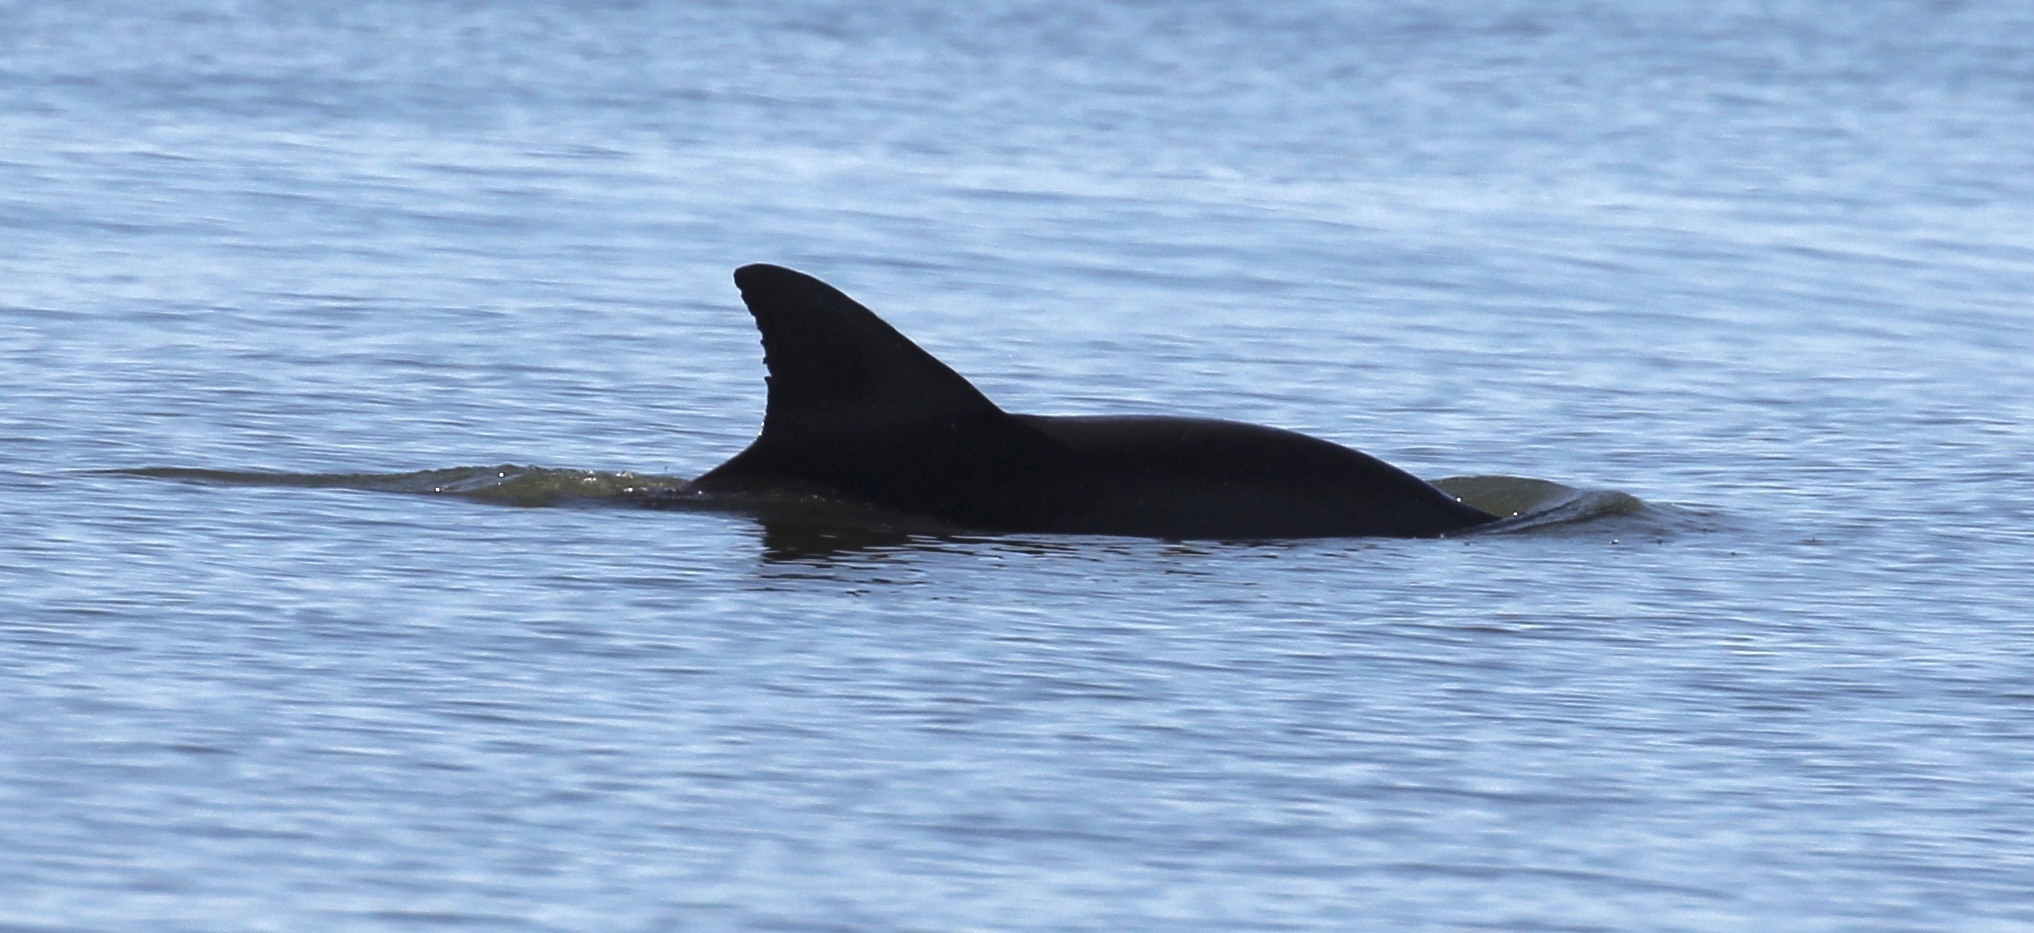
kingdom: Animalia
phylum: Chordata
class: Mammalia
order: Cetacea
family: Delphinidae
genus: Tursiops
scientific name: Tursiops truncatus
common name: Bottlenose dolphin
